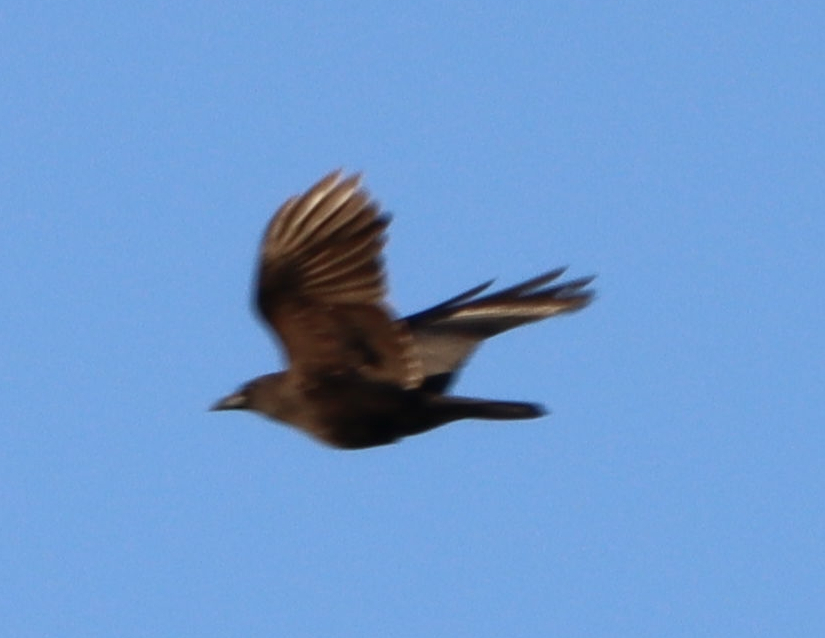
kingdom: Animalia
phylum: Chordata
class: Aves
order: Passeriformes
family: Corvidae
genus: Corvus
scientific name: Corvus brachyrhynchos
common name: American crow
